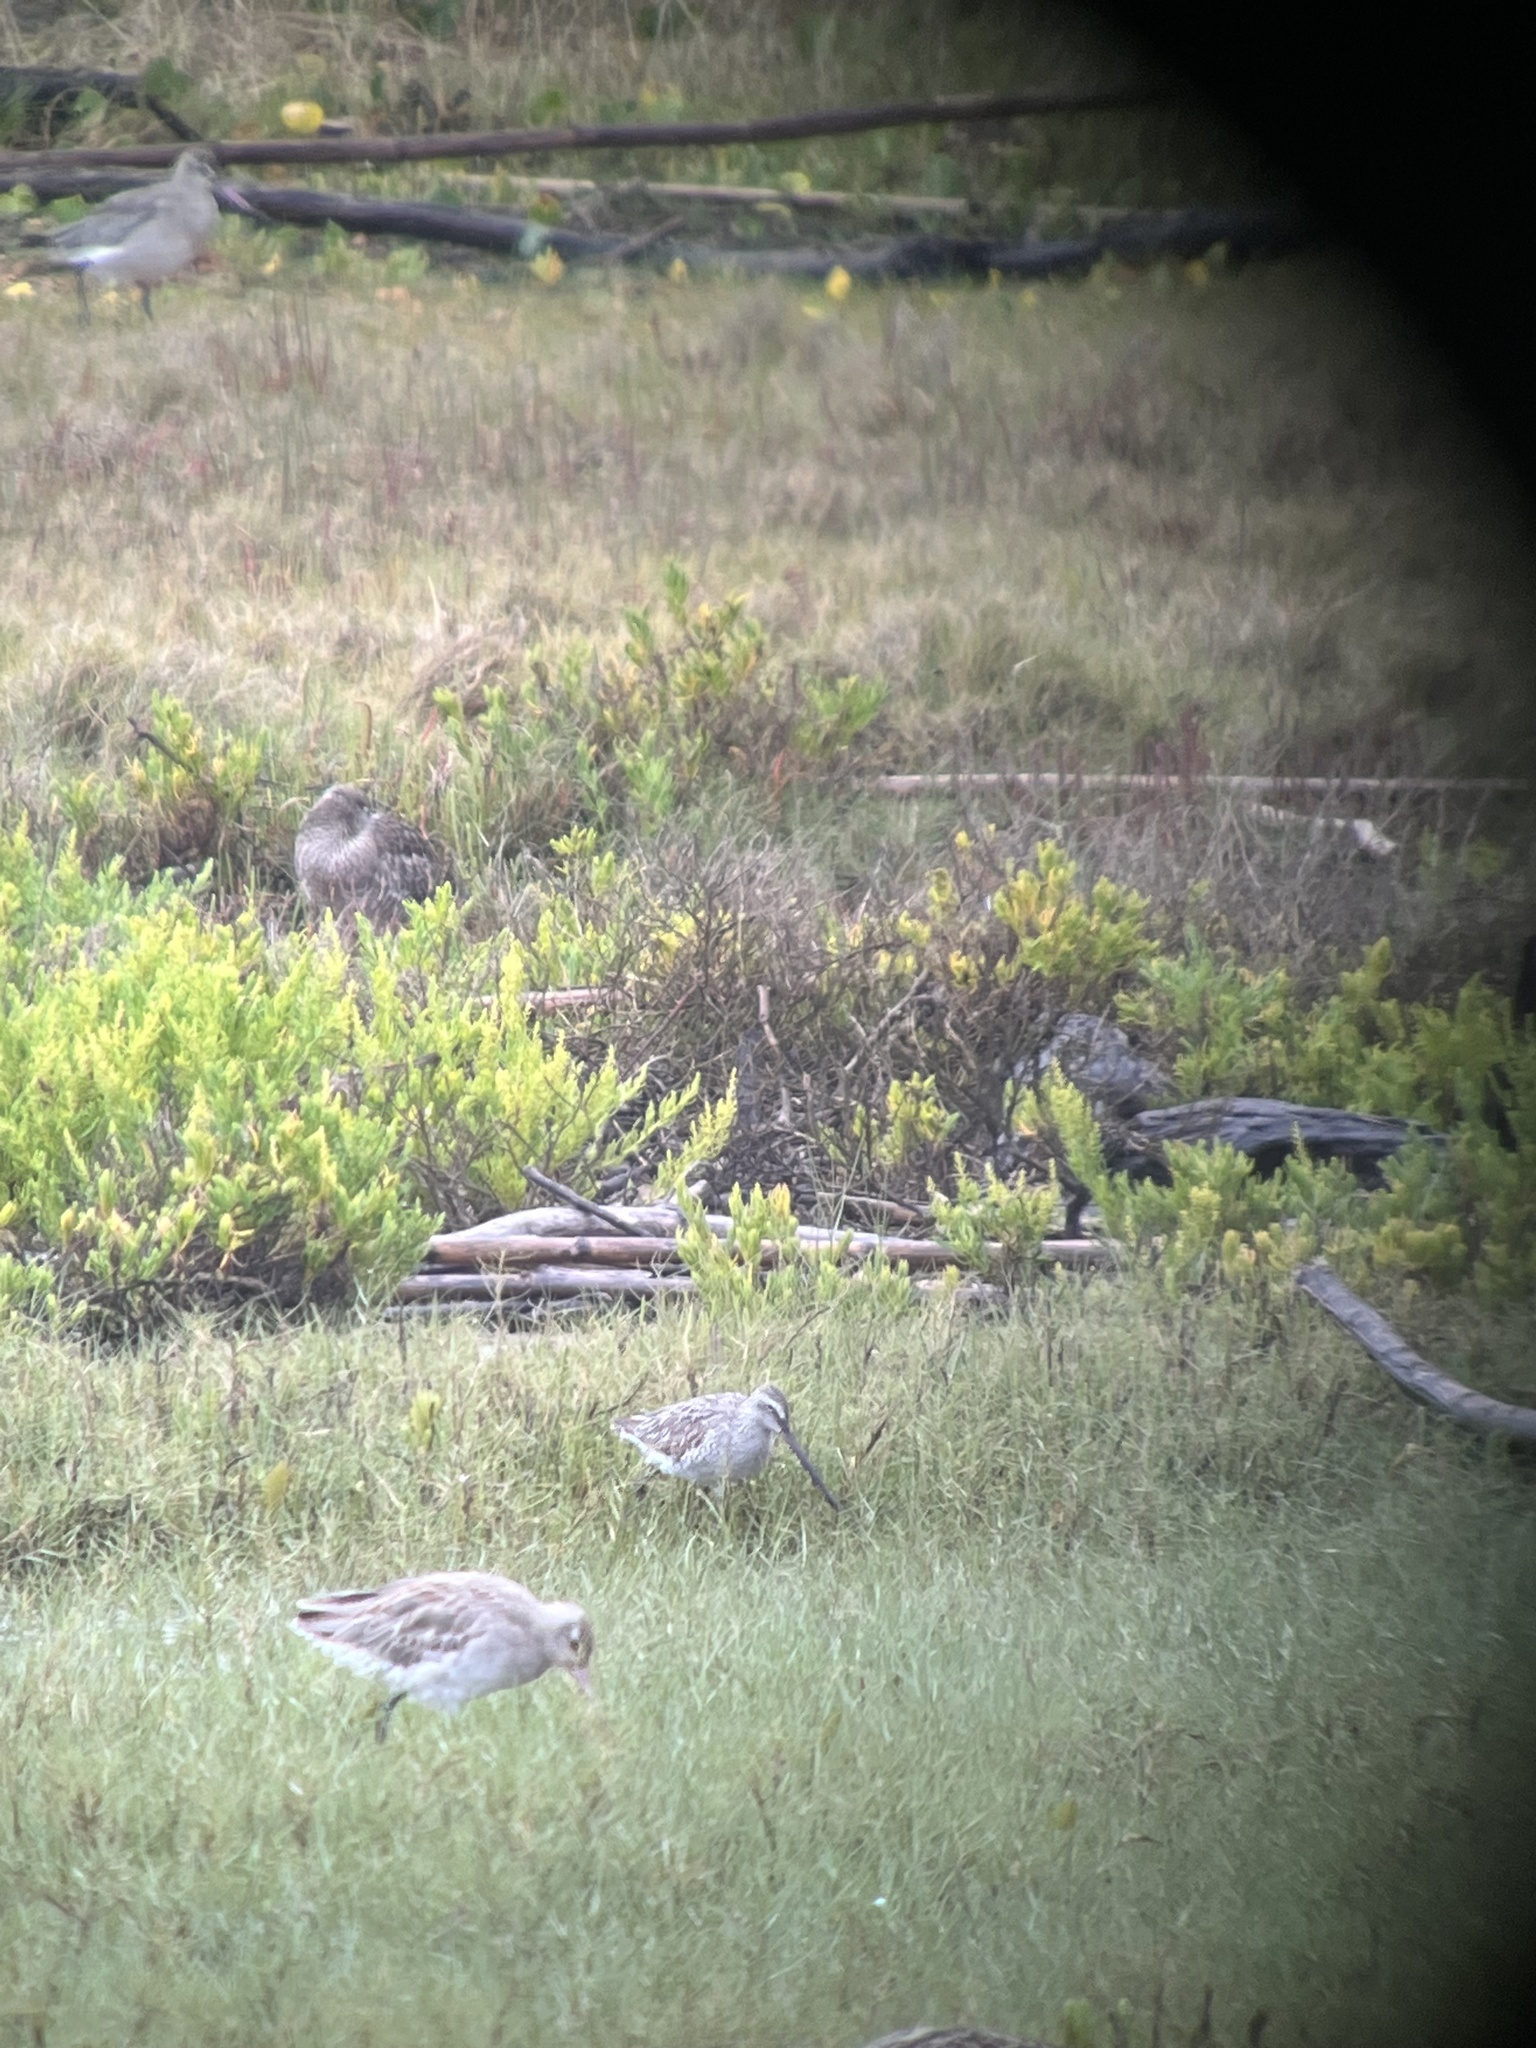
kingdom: Animalia
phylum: Chordata
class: Aves
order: Charadriiformes
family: Scolopacidae
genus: Limnodromus
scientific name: Limnodromus semipalmatus
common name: Asian dowitcher
